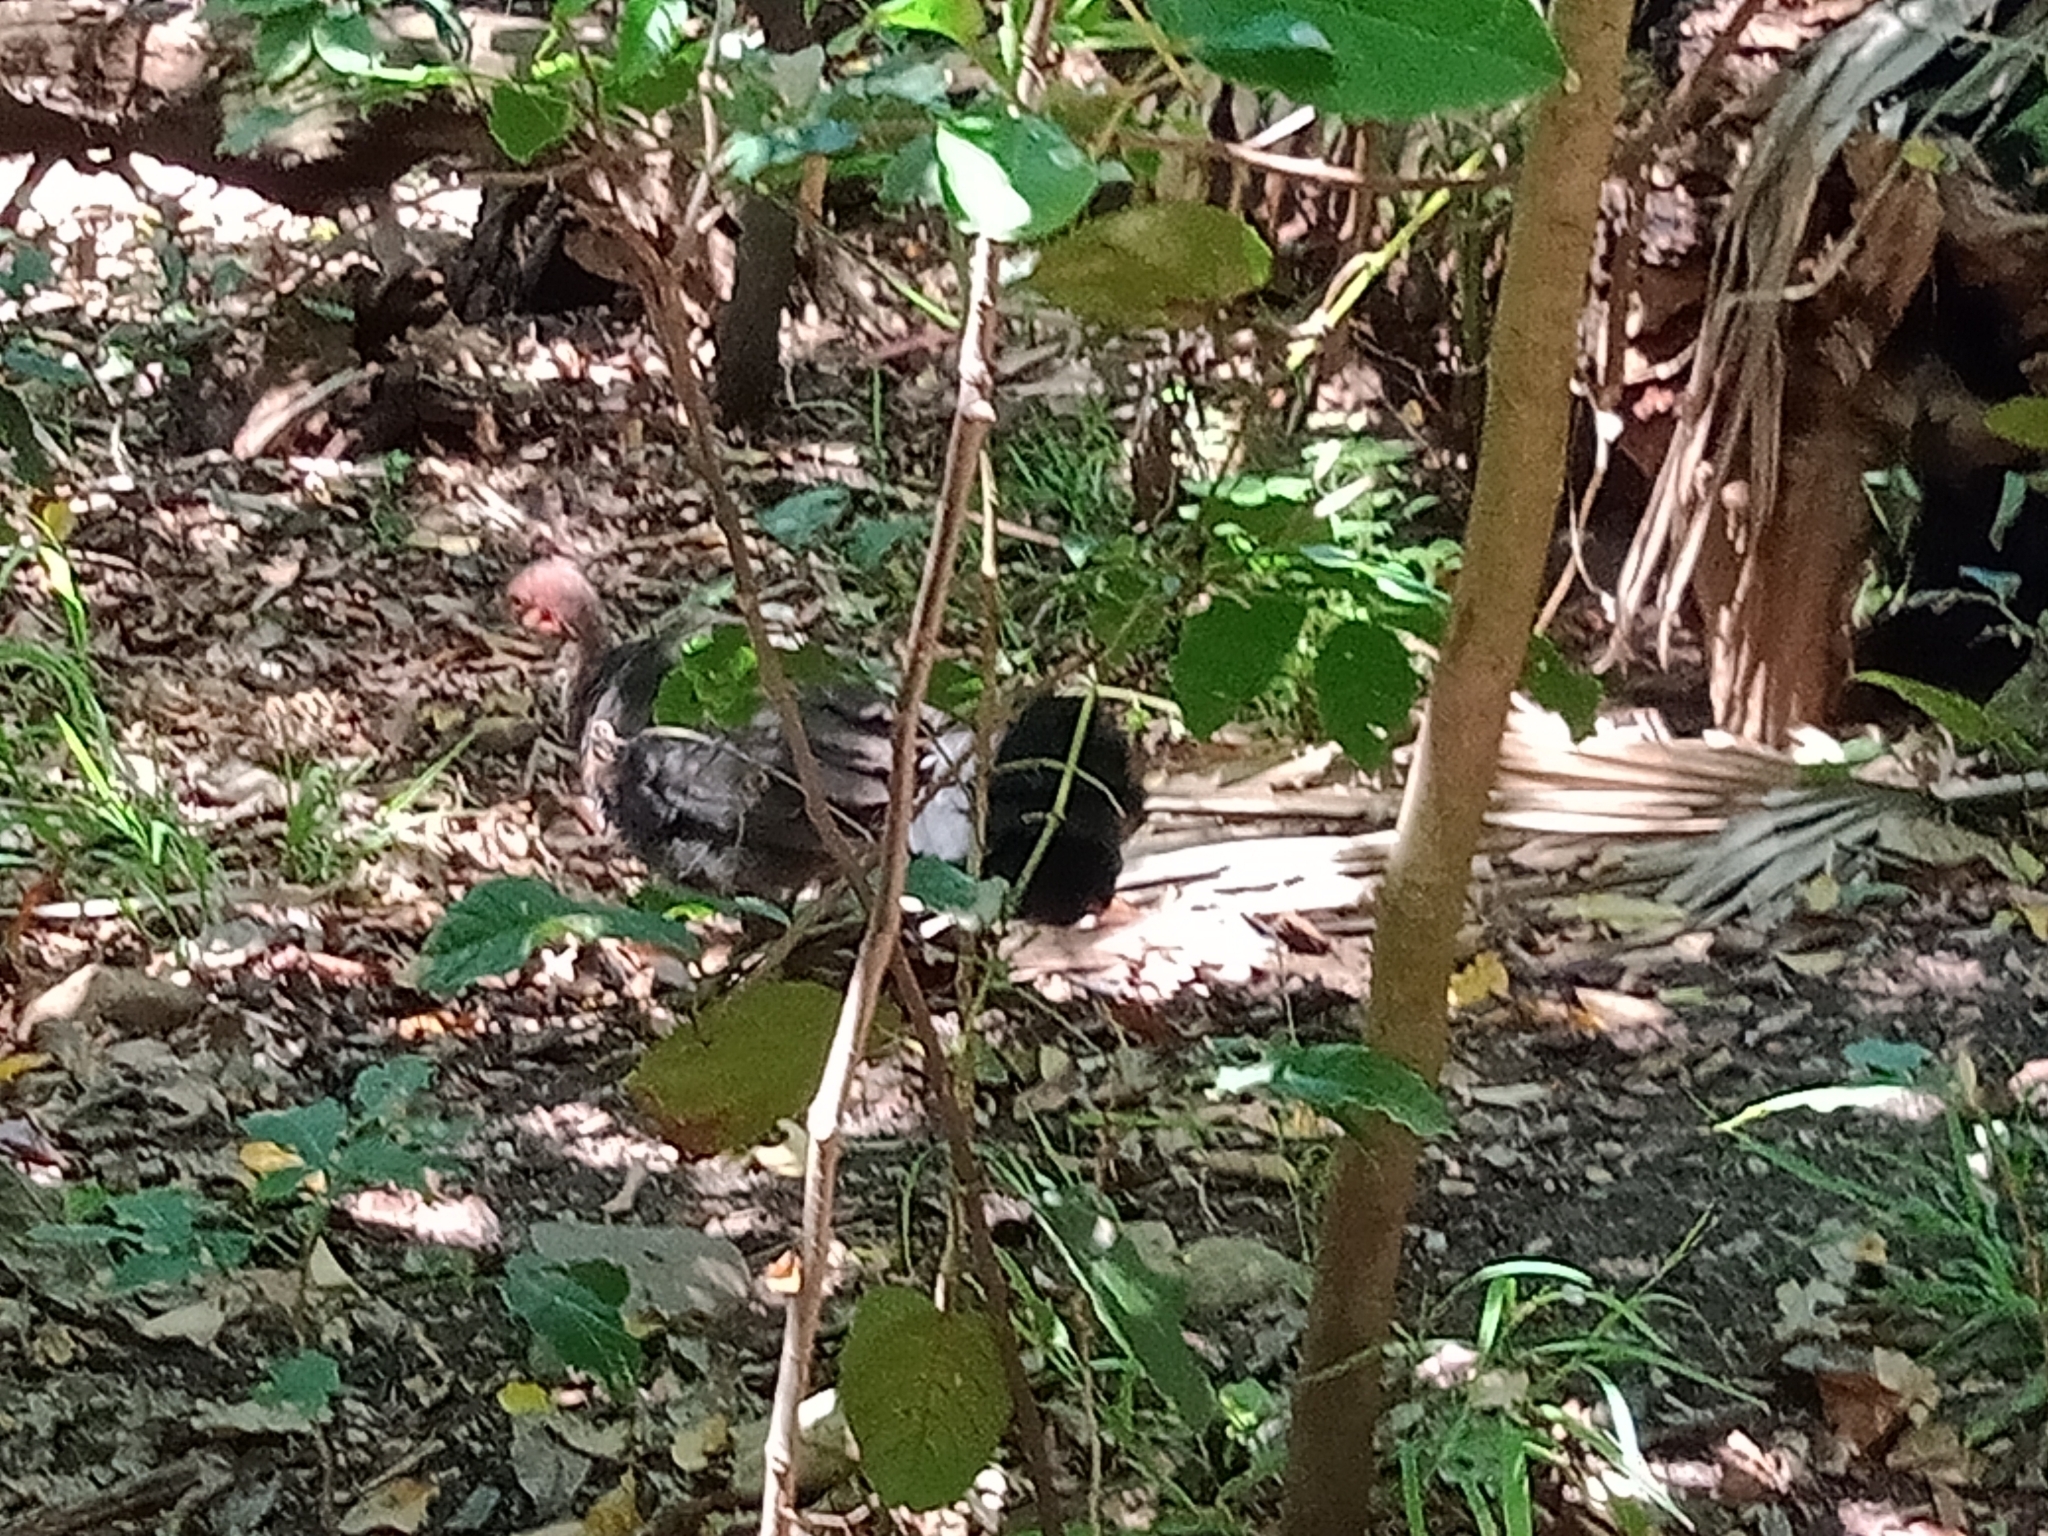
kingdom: Animalia
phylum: Chordata
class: Aves
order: Galliformes
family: Megapodiidae
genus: Alectura
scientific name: Alectura lathami
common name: Australian brushturkey
